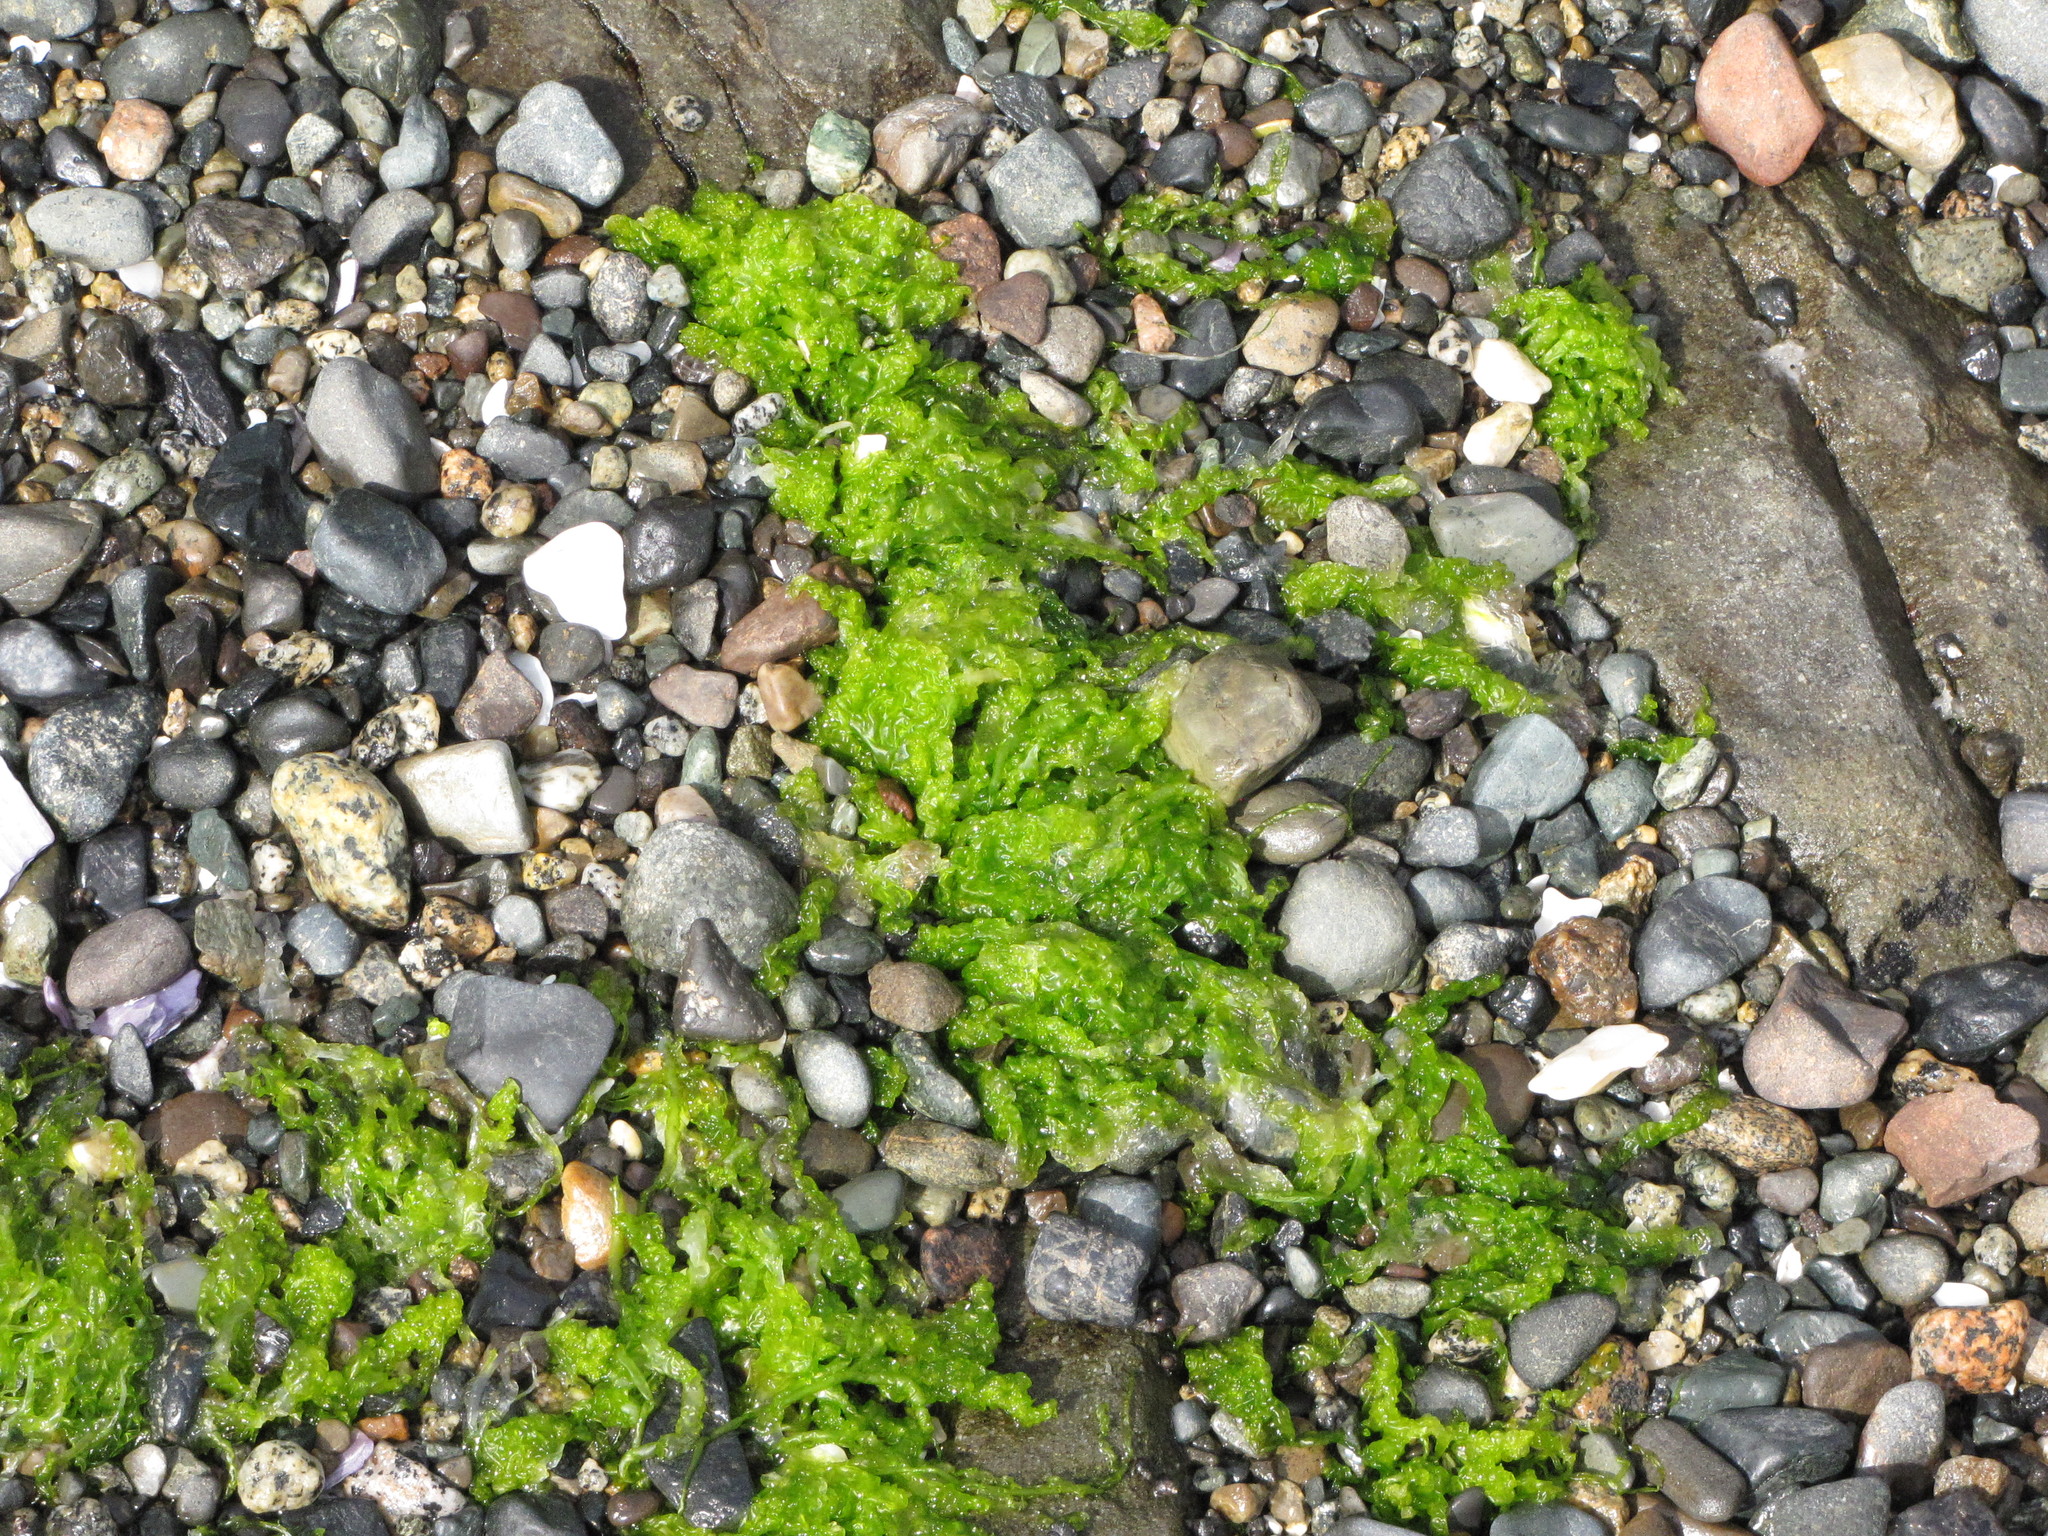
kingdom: Plantae
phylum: Chlorophyta
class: Ulvophyceae
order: Ulvales
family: Ulvaceae
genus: Ulva
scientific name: Ulva lactuca
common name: Sea lettuce
